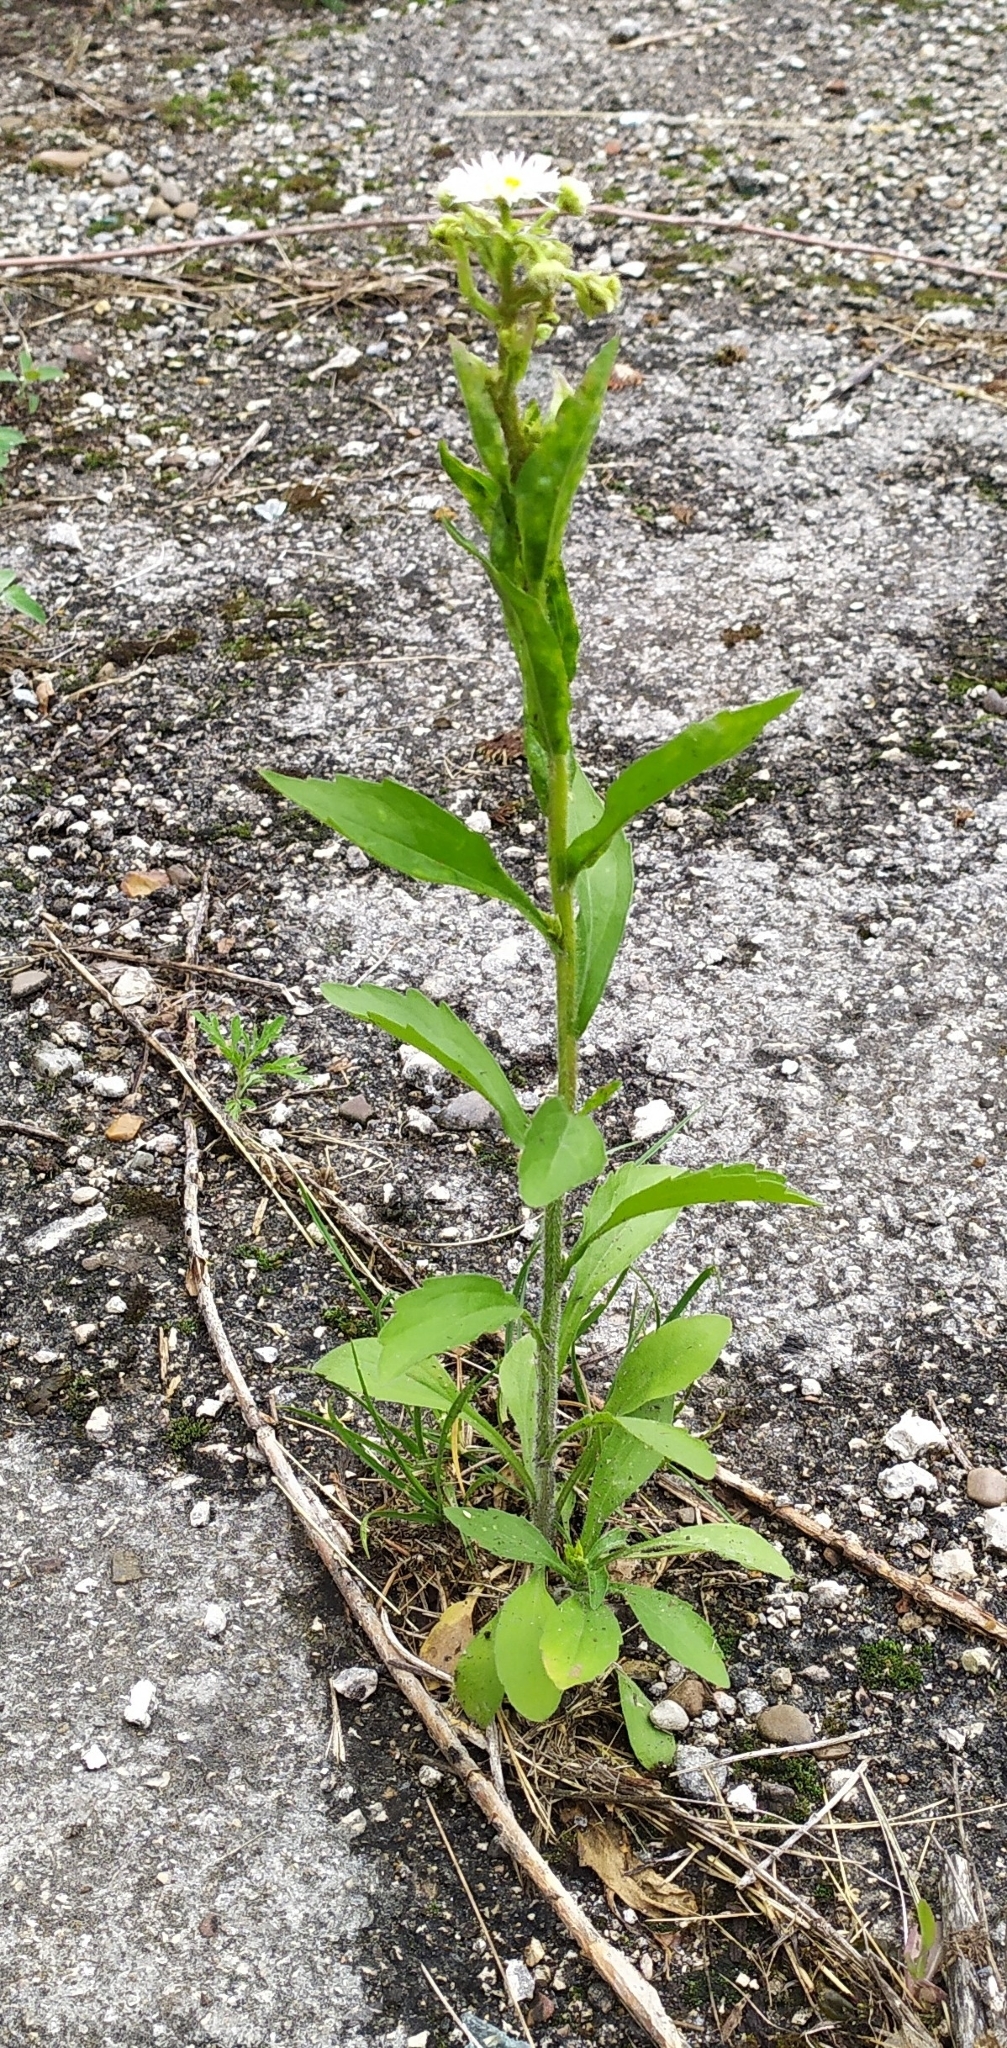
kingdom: Plantae
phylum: Tracheophyta
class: Magnoliopsida
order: Asterales
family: Asteraceae
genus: Erigeron
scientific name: Erigeron annuus
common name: Tall fleabane
